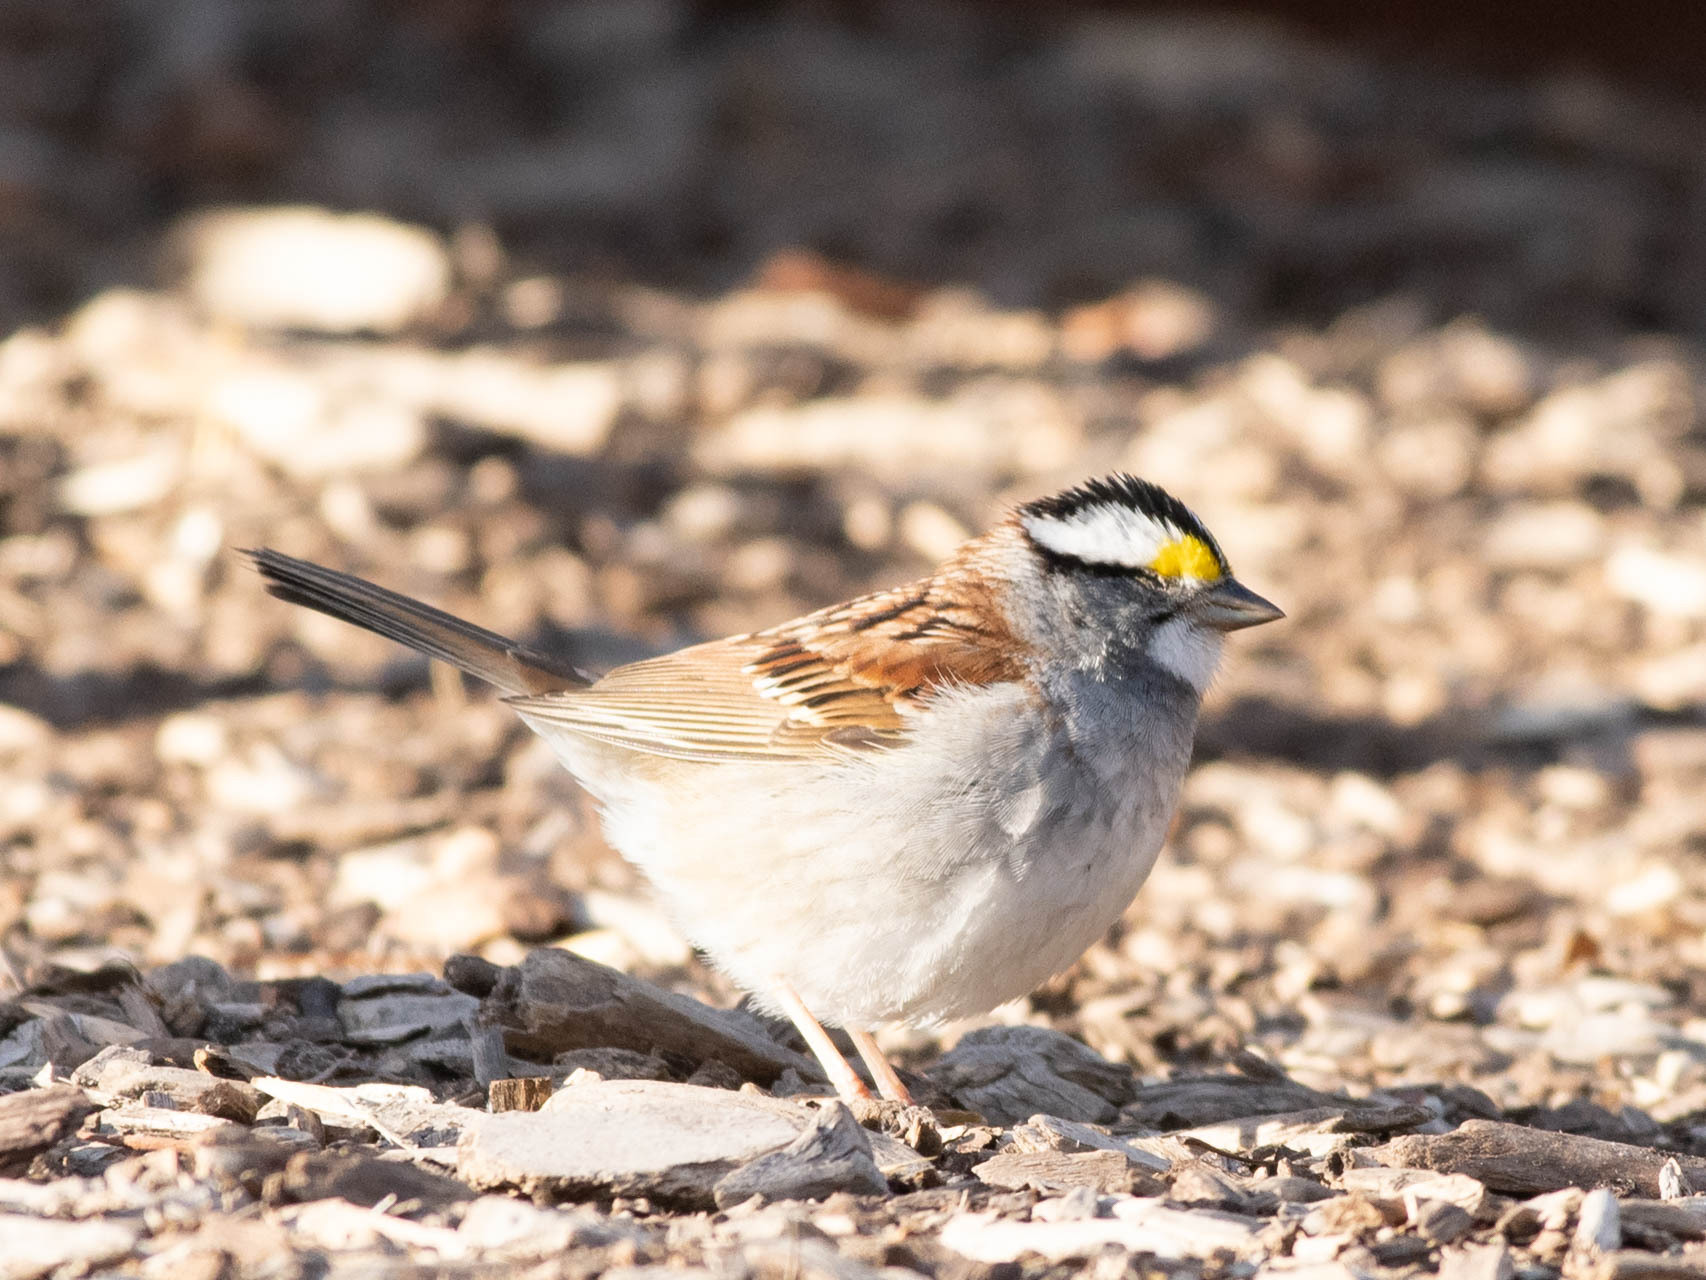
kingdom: Animalia
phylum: Chordata
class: Aves
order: Passeriformes
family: Passerellidae
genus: Zonotrichia
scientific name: Zonotrichia albicollis
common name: White-throated sparrow
